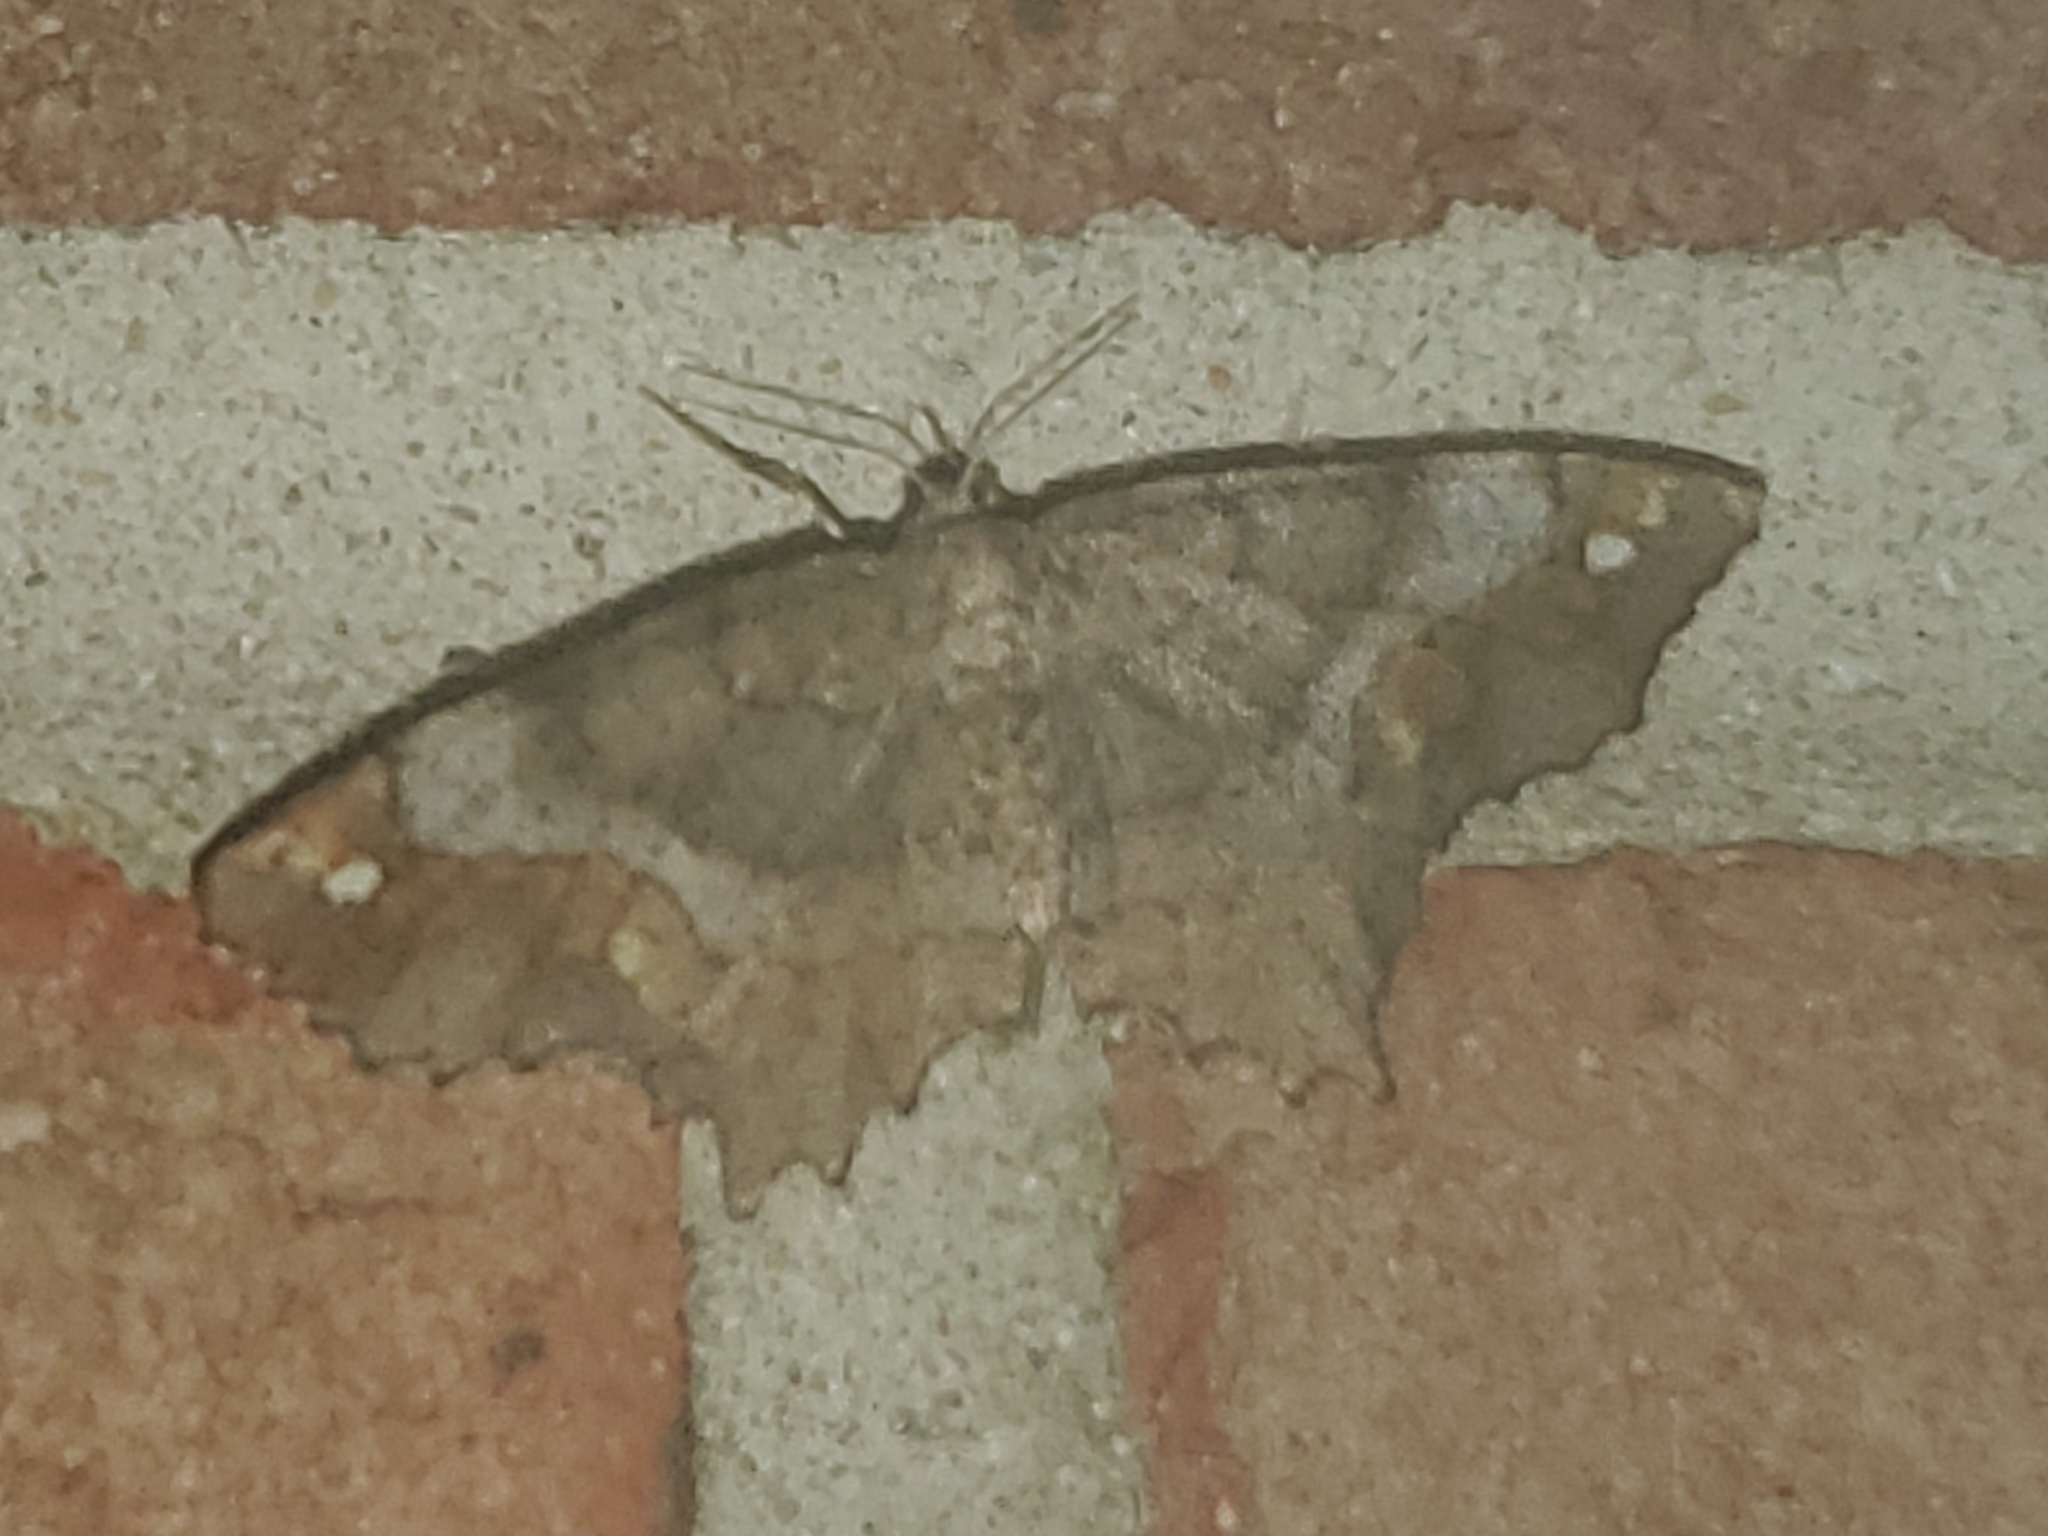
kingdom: Animalia
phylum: Arthropoda
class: Insecta
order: Lepidoptera
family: Geometridae
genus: Hypagyrtis
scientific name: Hypagyrtis unipunctata
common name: One-spotted variant
